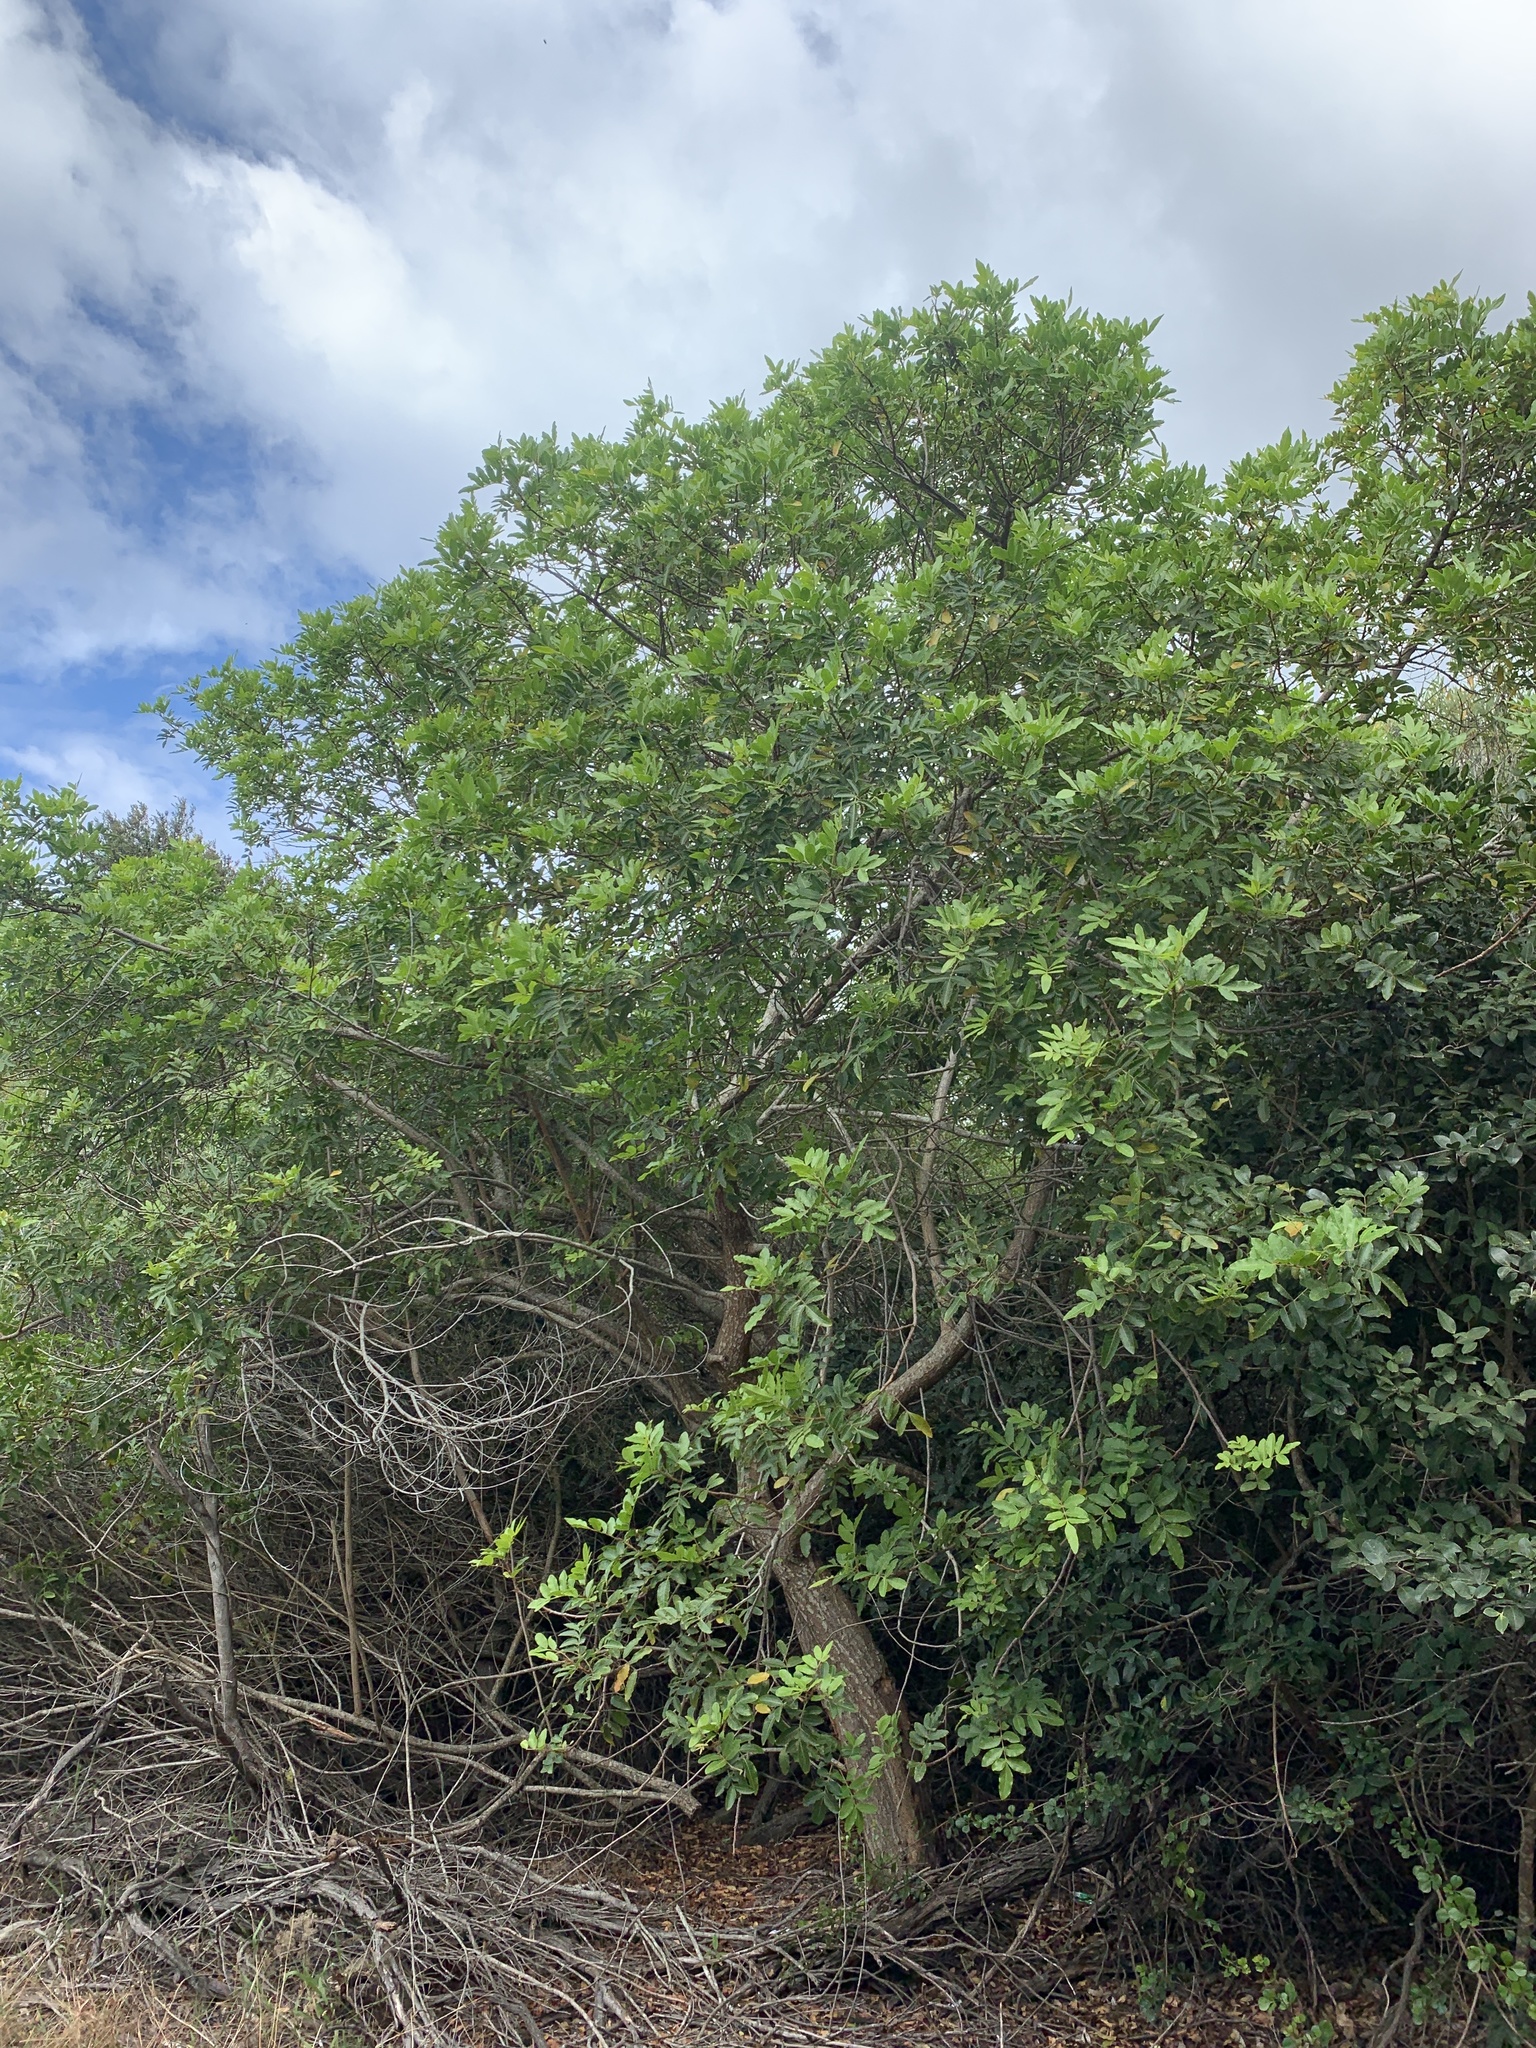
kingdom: Plantae
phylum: Tracheophyta
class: Magnoliopsida
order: Sapindales
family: Anacardiaceae
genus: Schinus
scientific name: Schinus terebinthifolia
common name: Brazilian peppertree
